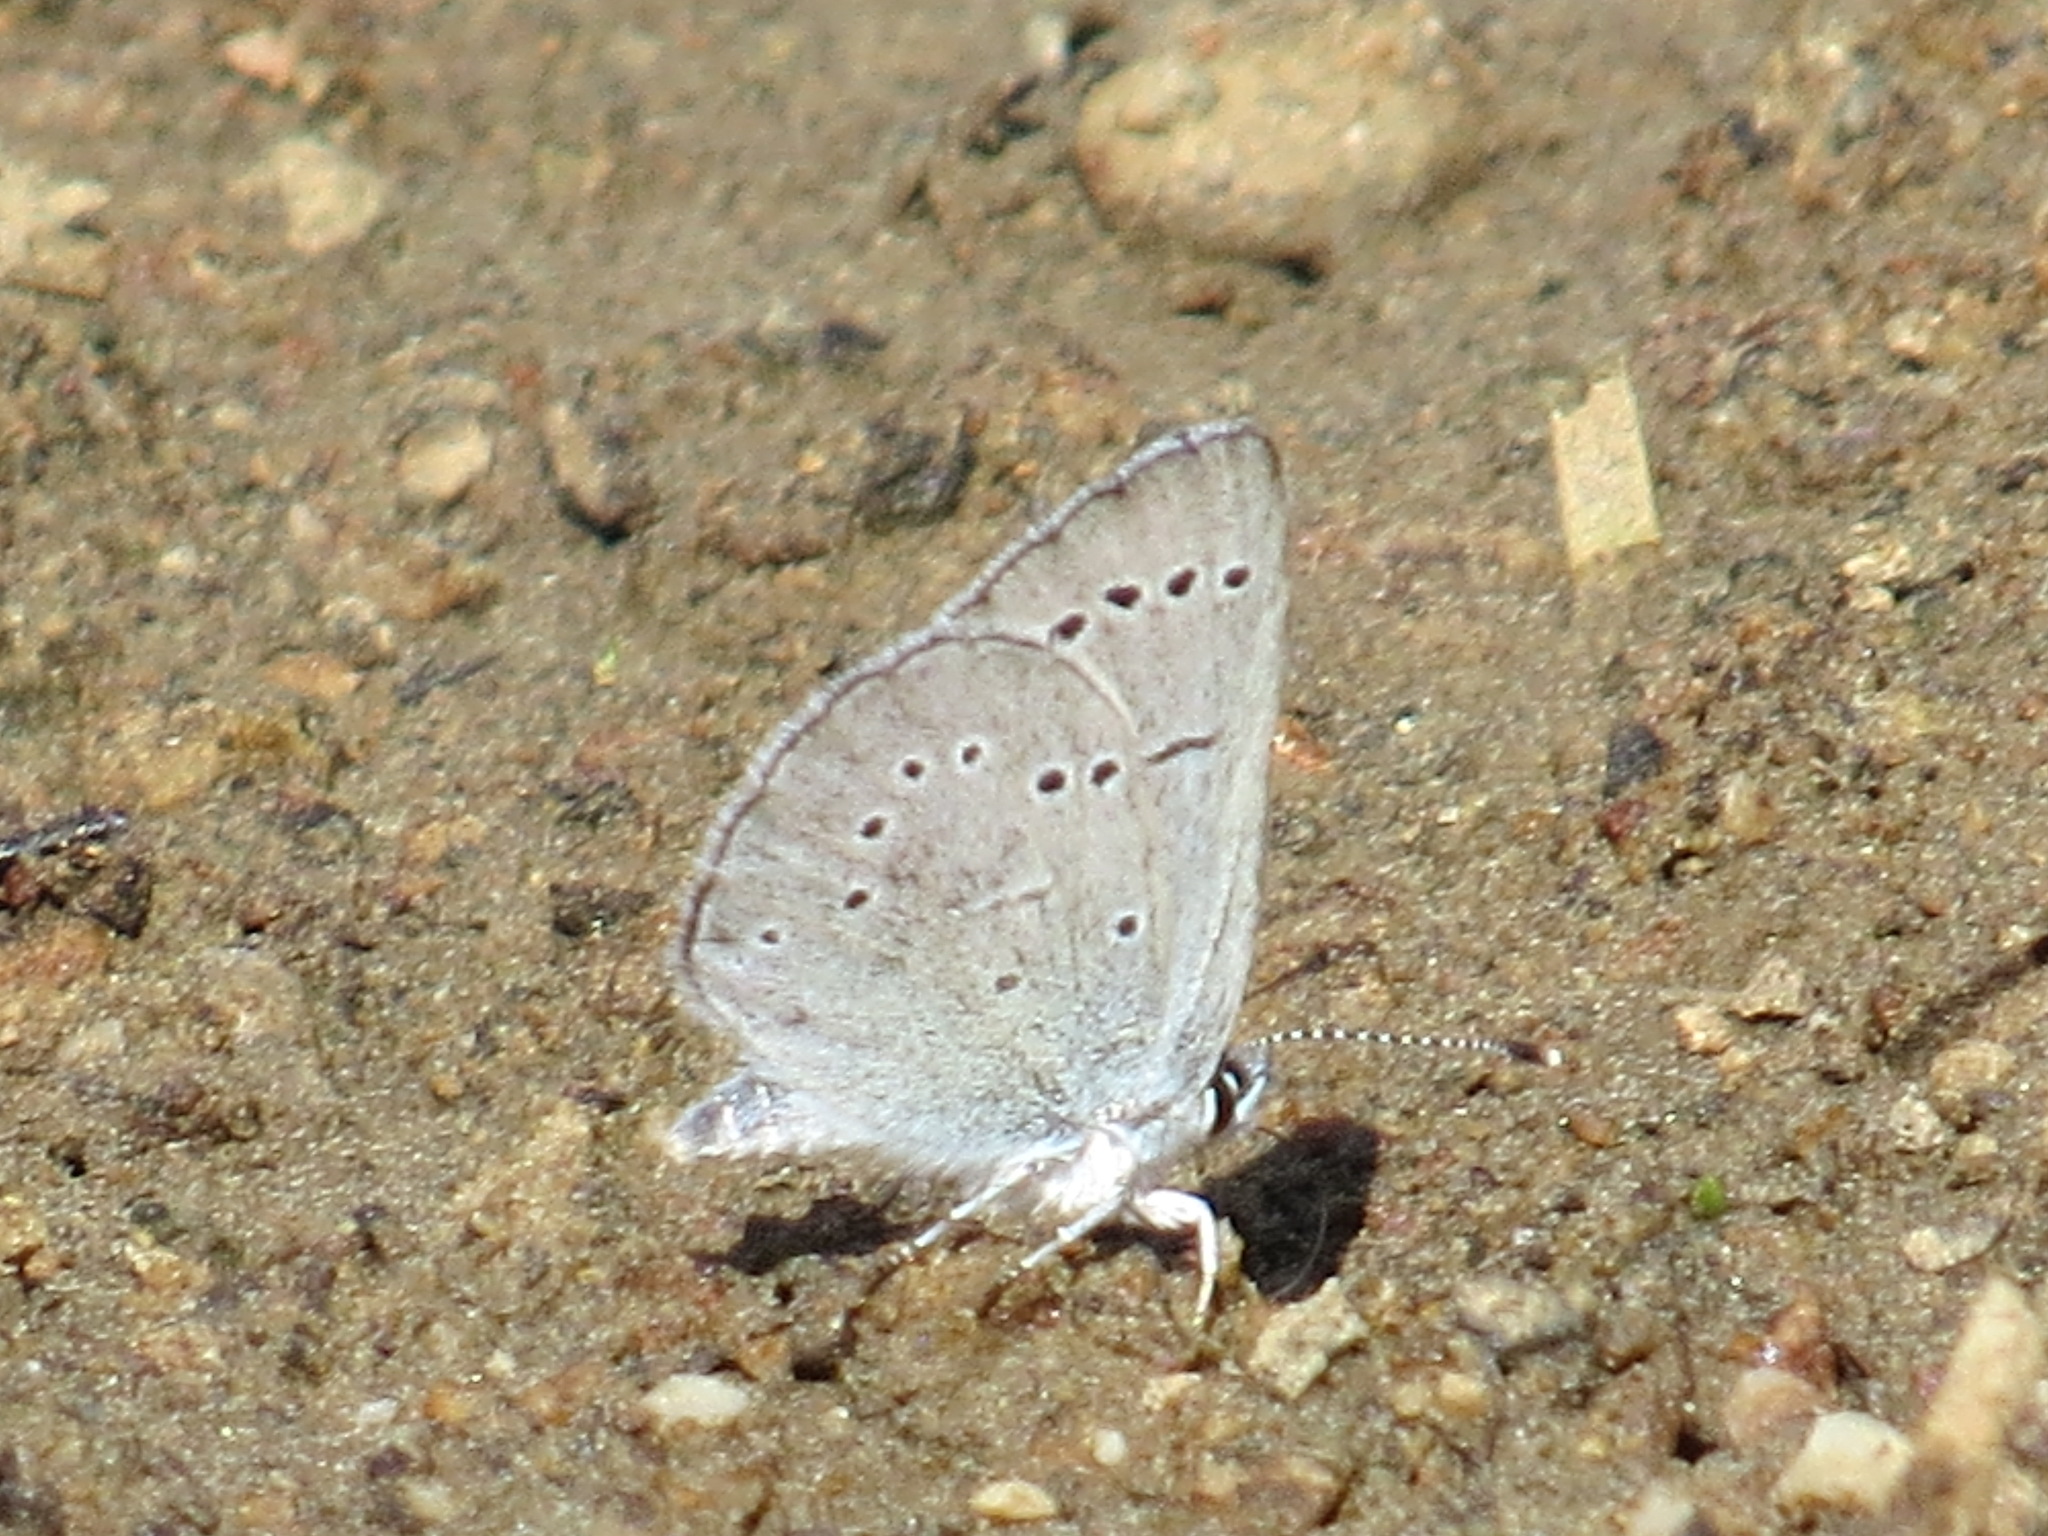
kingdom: Animalia
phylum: Arthropoda
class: Insecta
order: Lepidoptera
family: Lycaenidae
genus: Glaucopsyche
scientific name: Glaucopsyche lygdamus
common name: Silvery blue
